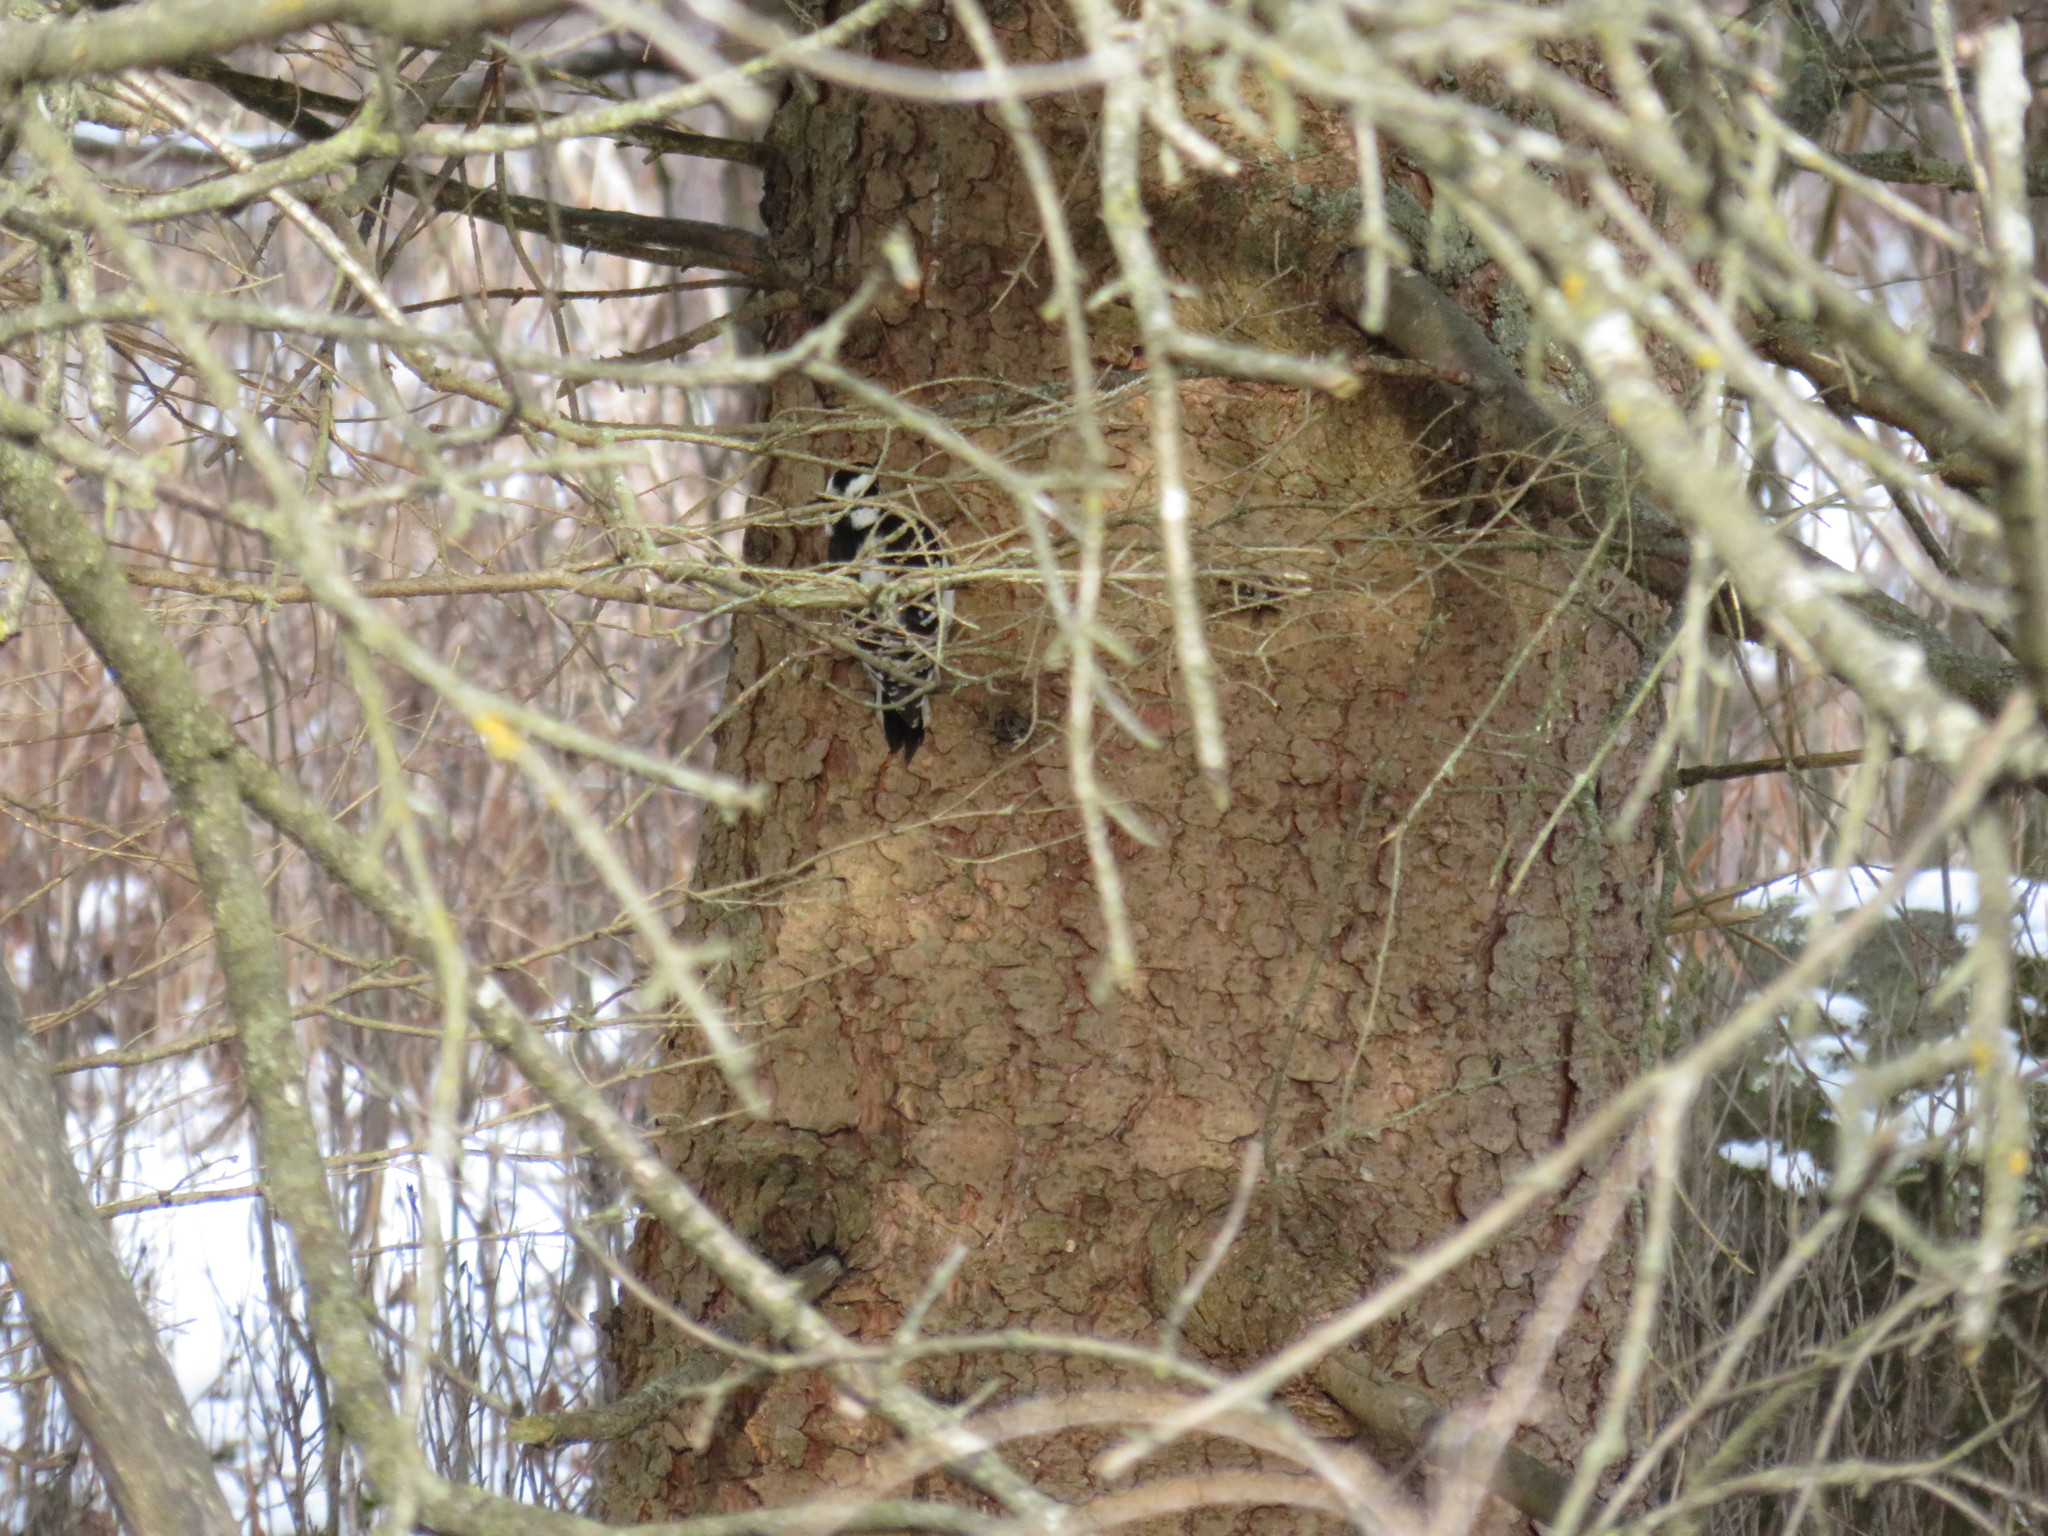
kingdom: Animalia
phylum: Chordata
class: Aves
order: Piciformes
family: Picidae
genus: Dryobates
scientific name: Dryobates pubescens
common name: Downy woodpecker
